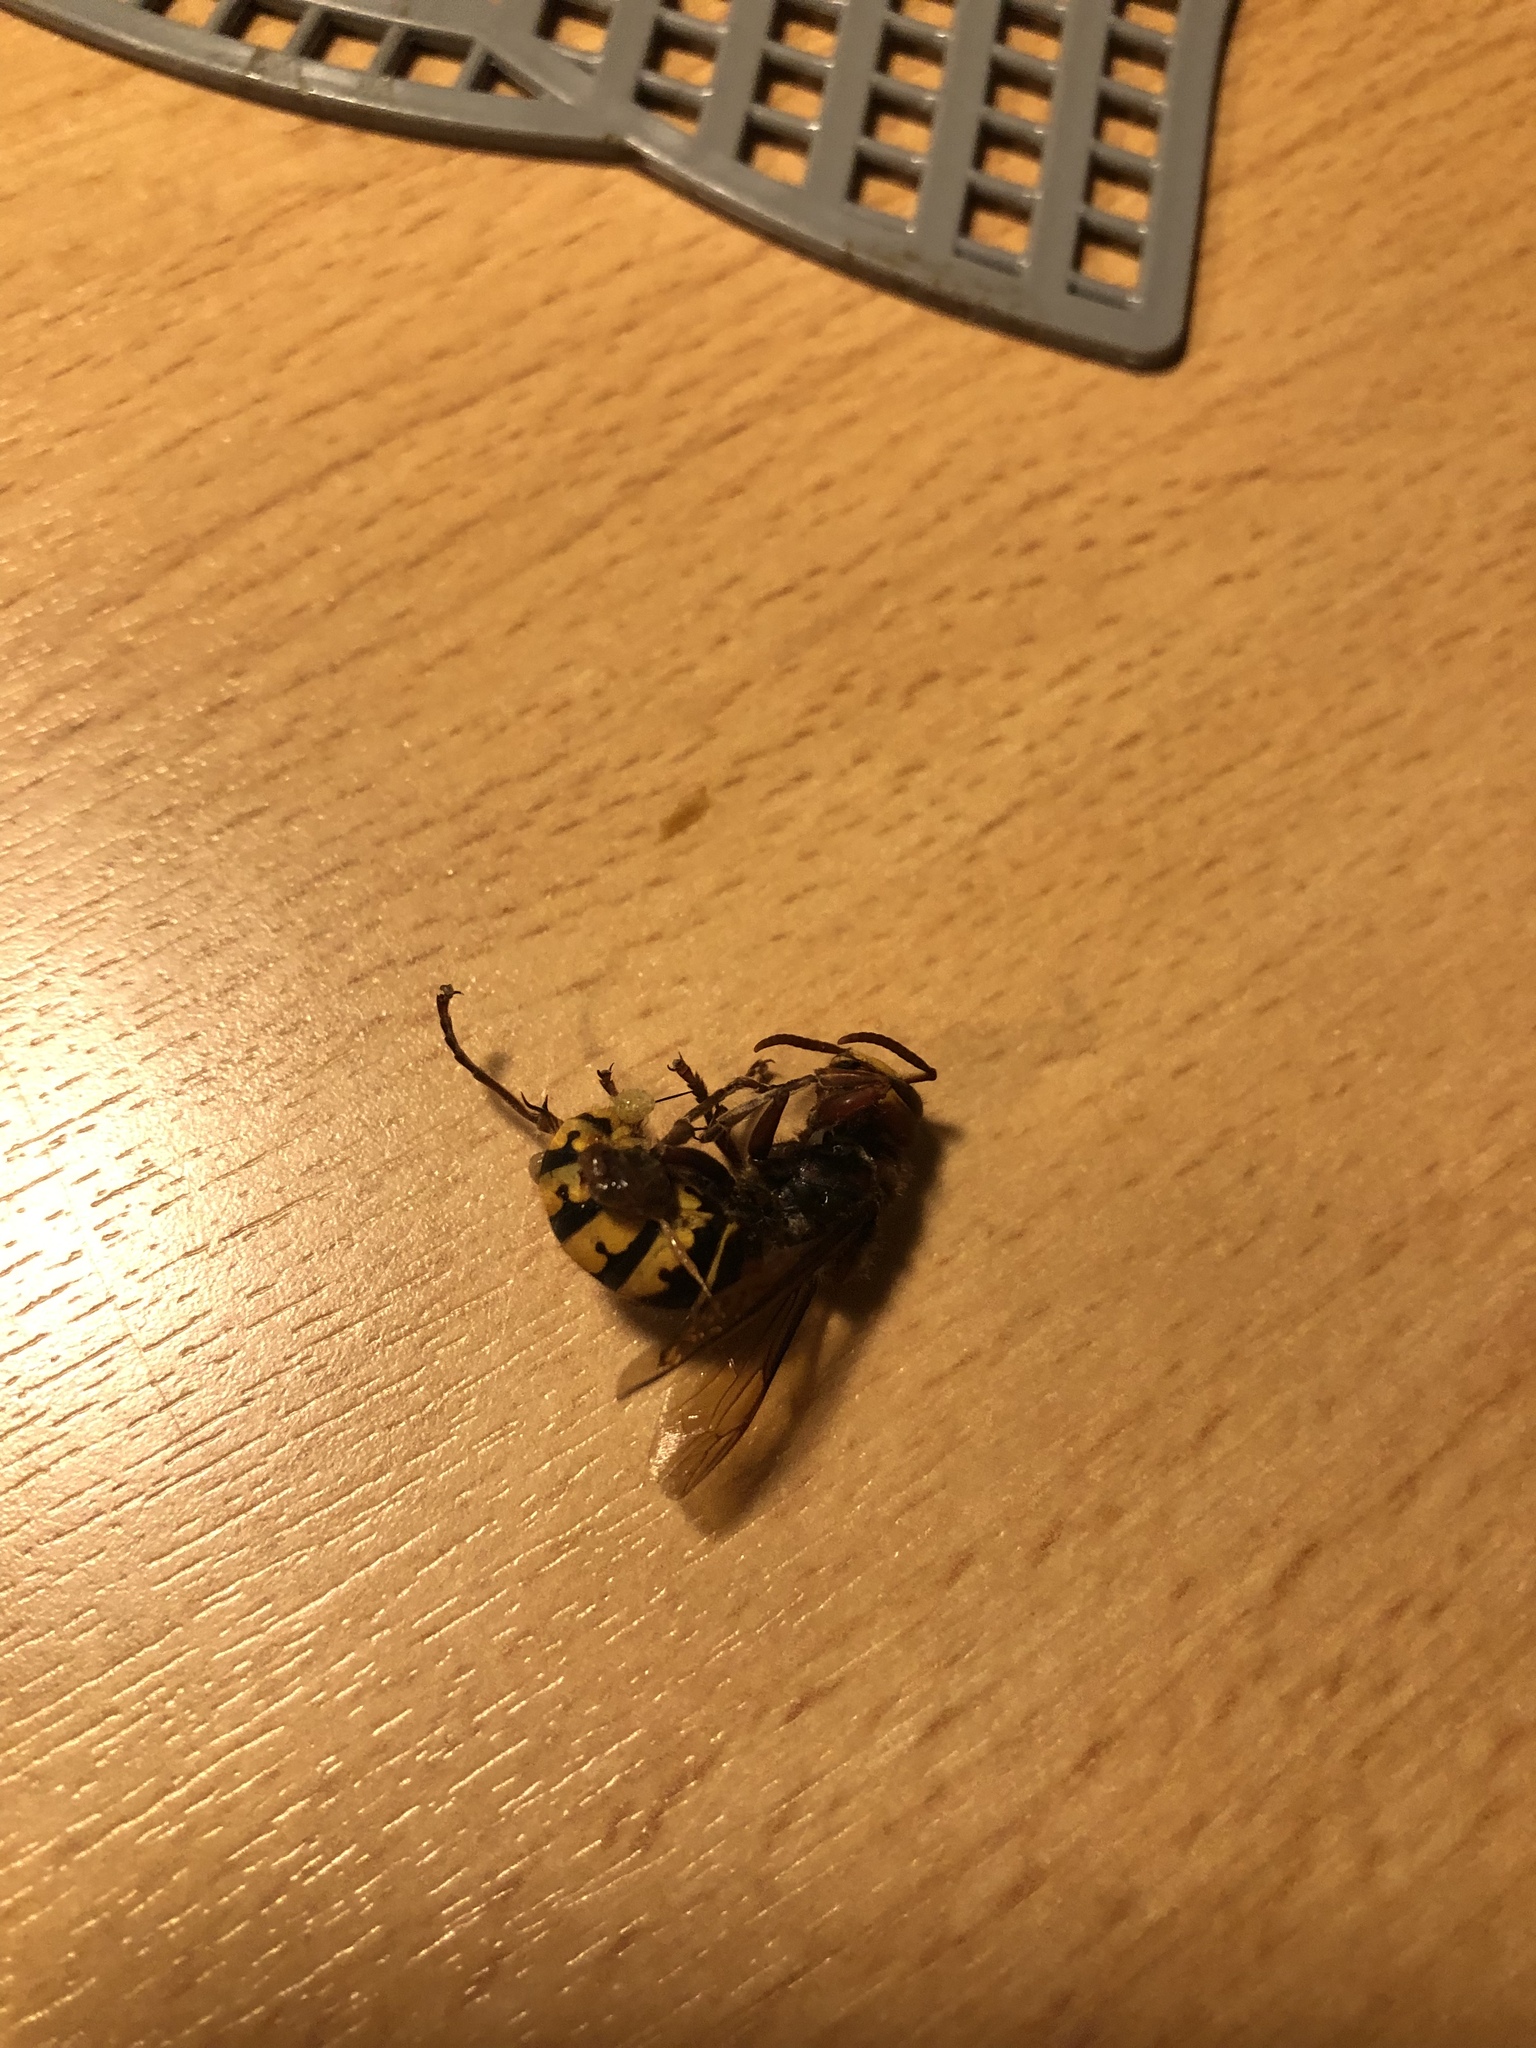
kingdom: Animalia
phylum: Arthropoda
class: Insecta
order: Hymenoptera
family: Vespidae
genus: Vespa
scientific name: Vespa crabro
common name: Hornet
